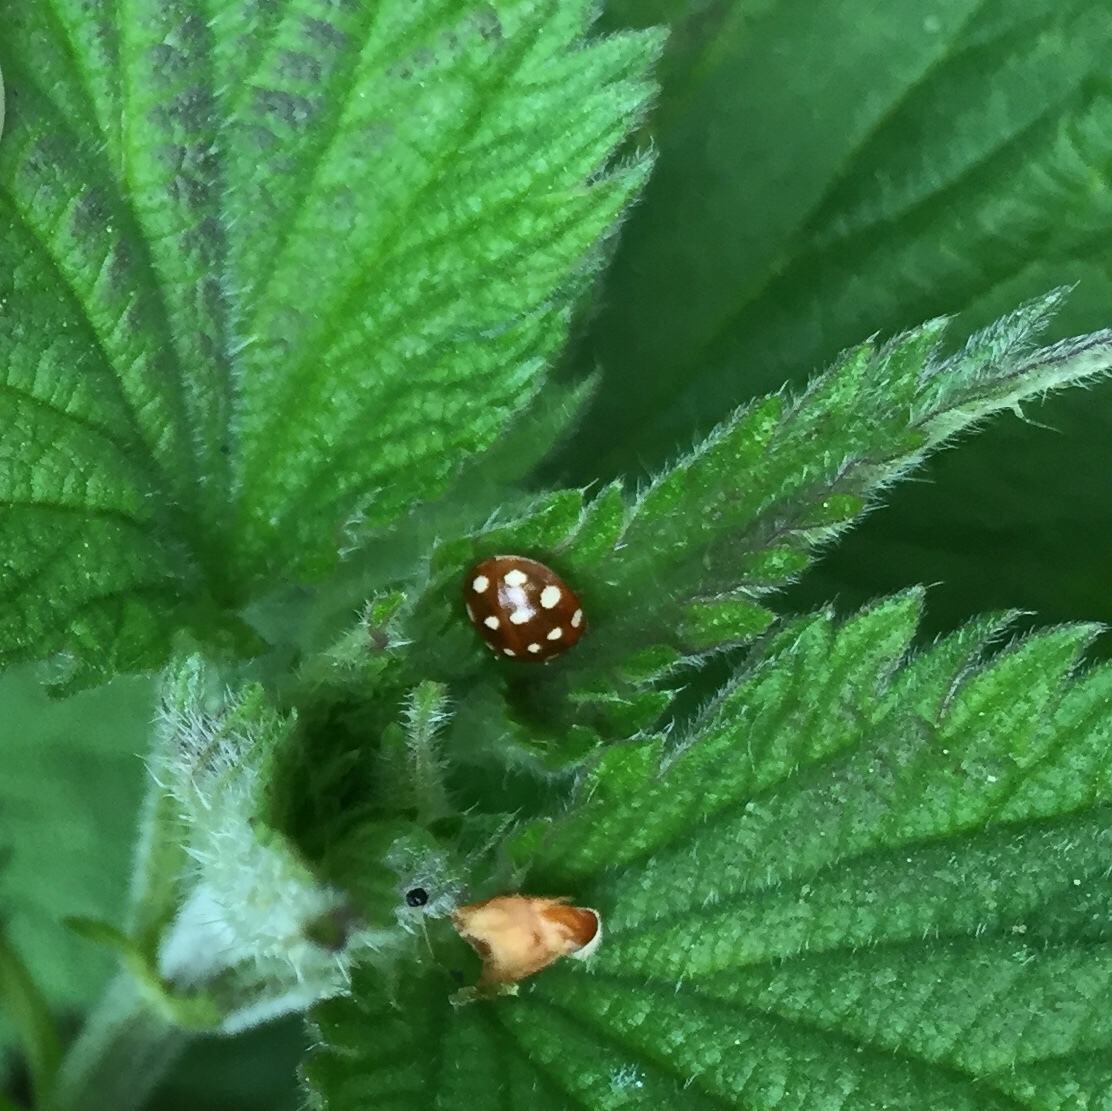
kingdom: Animalia
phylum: Arthropoda
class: Insecta
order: Coleoptera
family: Coccinellidae
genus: Calvia
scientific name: Calvia quatuordecimguttata
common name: Cream-spot ladybird
